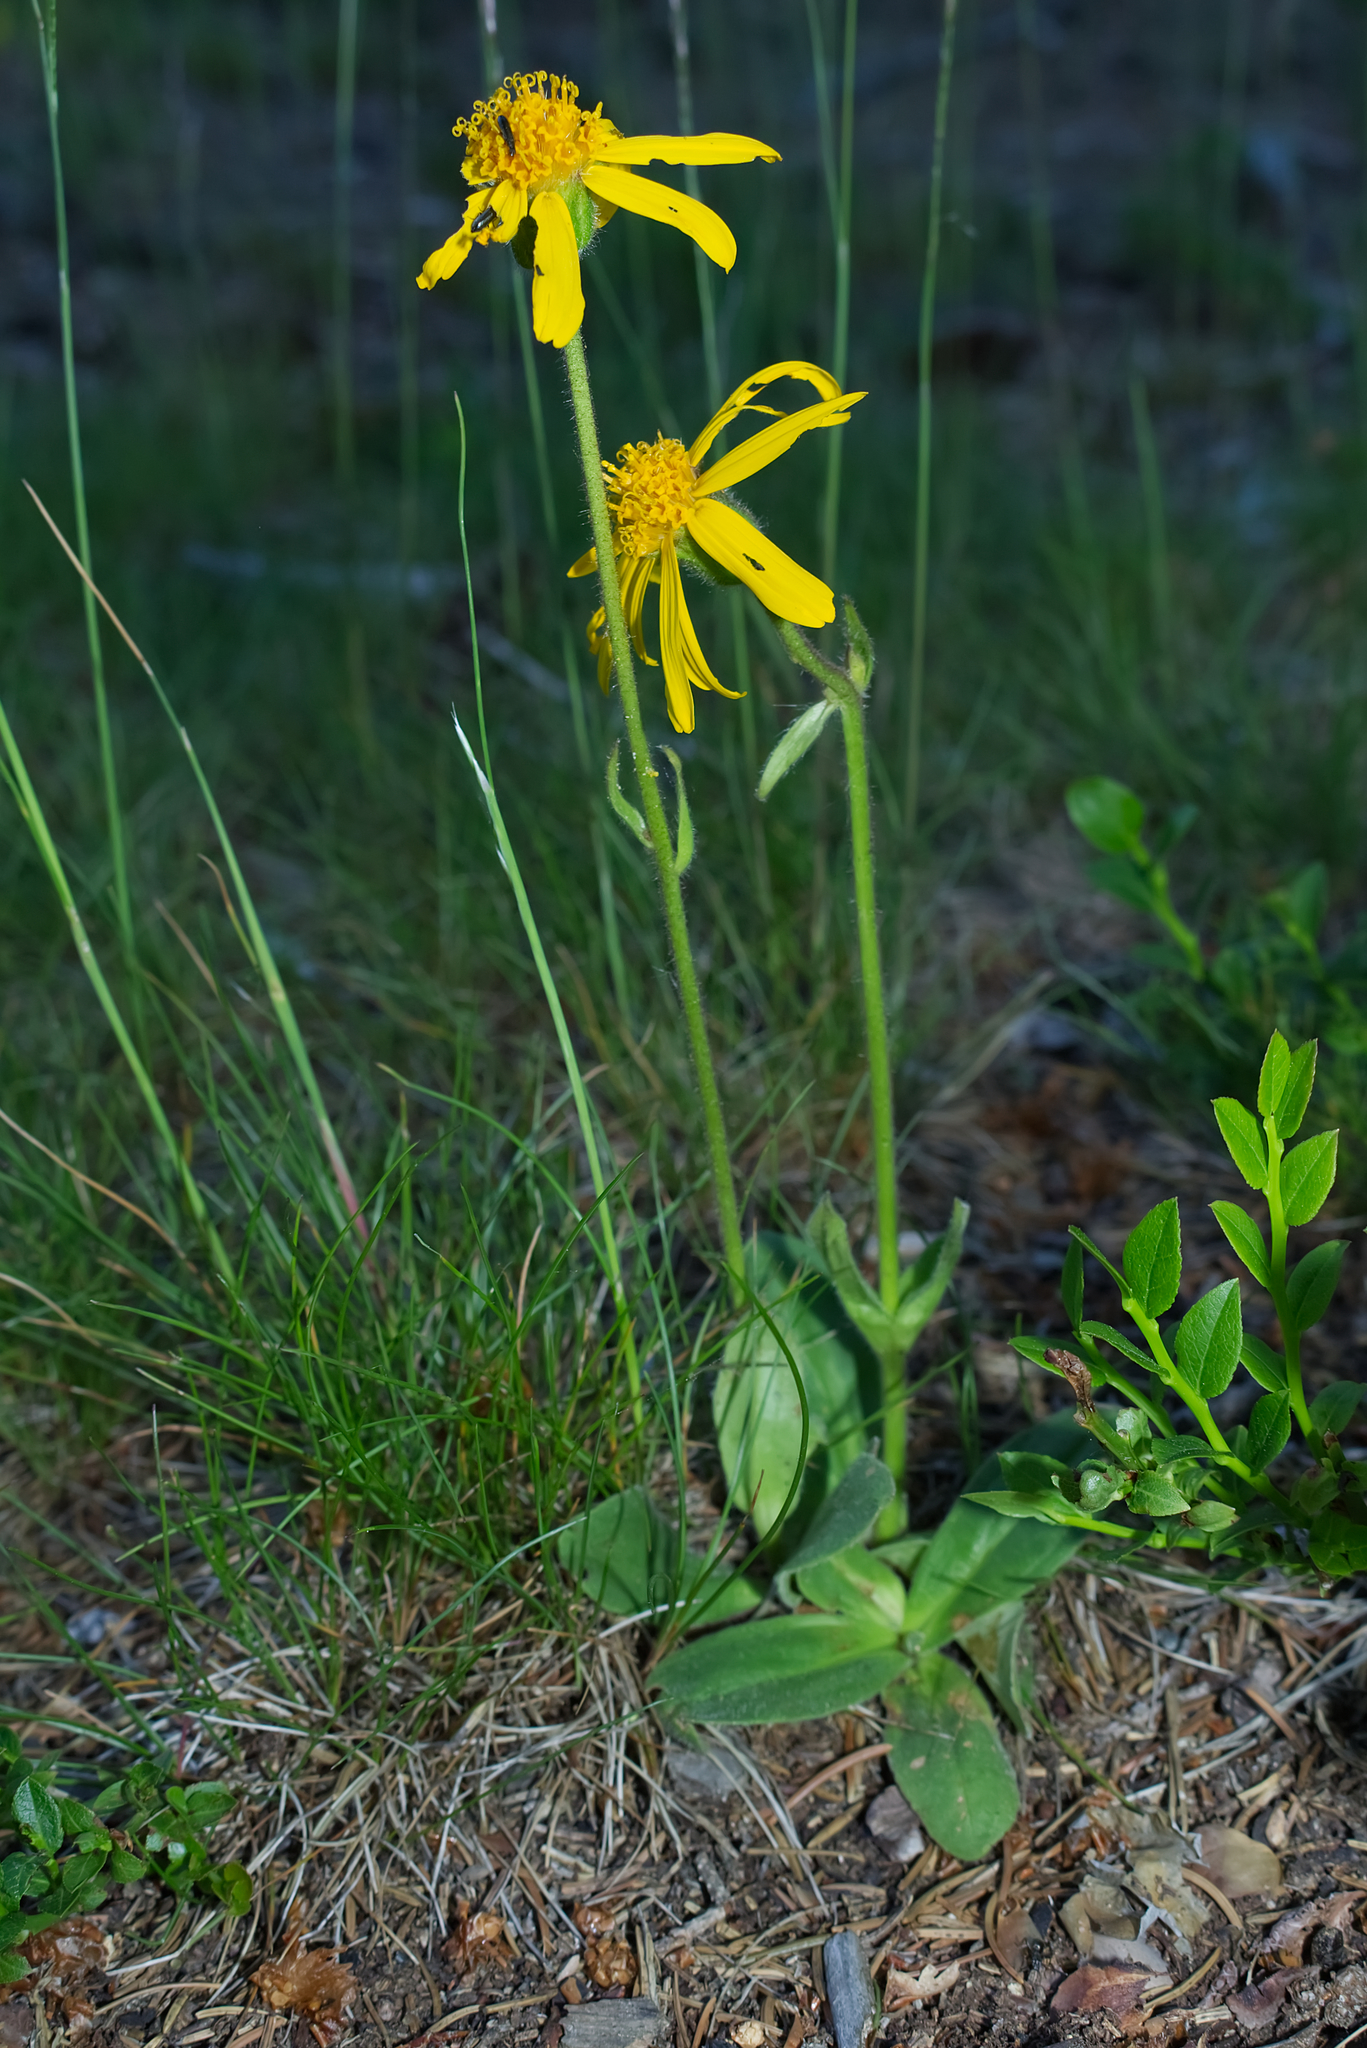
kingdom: Plantae
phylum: Tracheophyta
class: Magnoliopsida
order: Asterales
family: Asteraceae
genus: Arnica
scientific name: Arnica montana
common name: Leopard's bane
